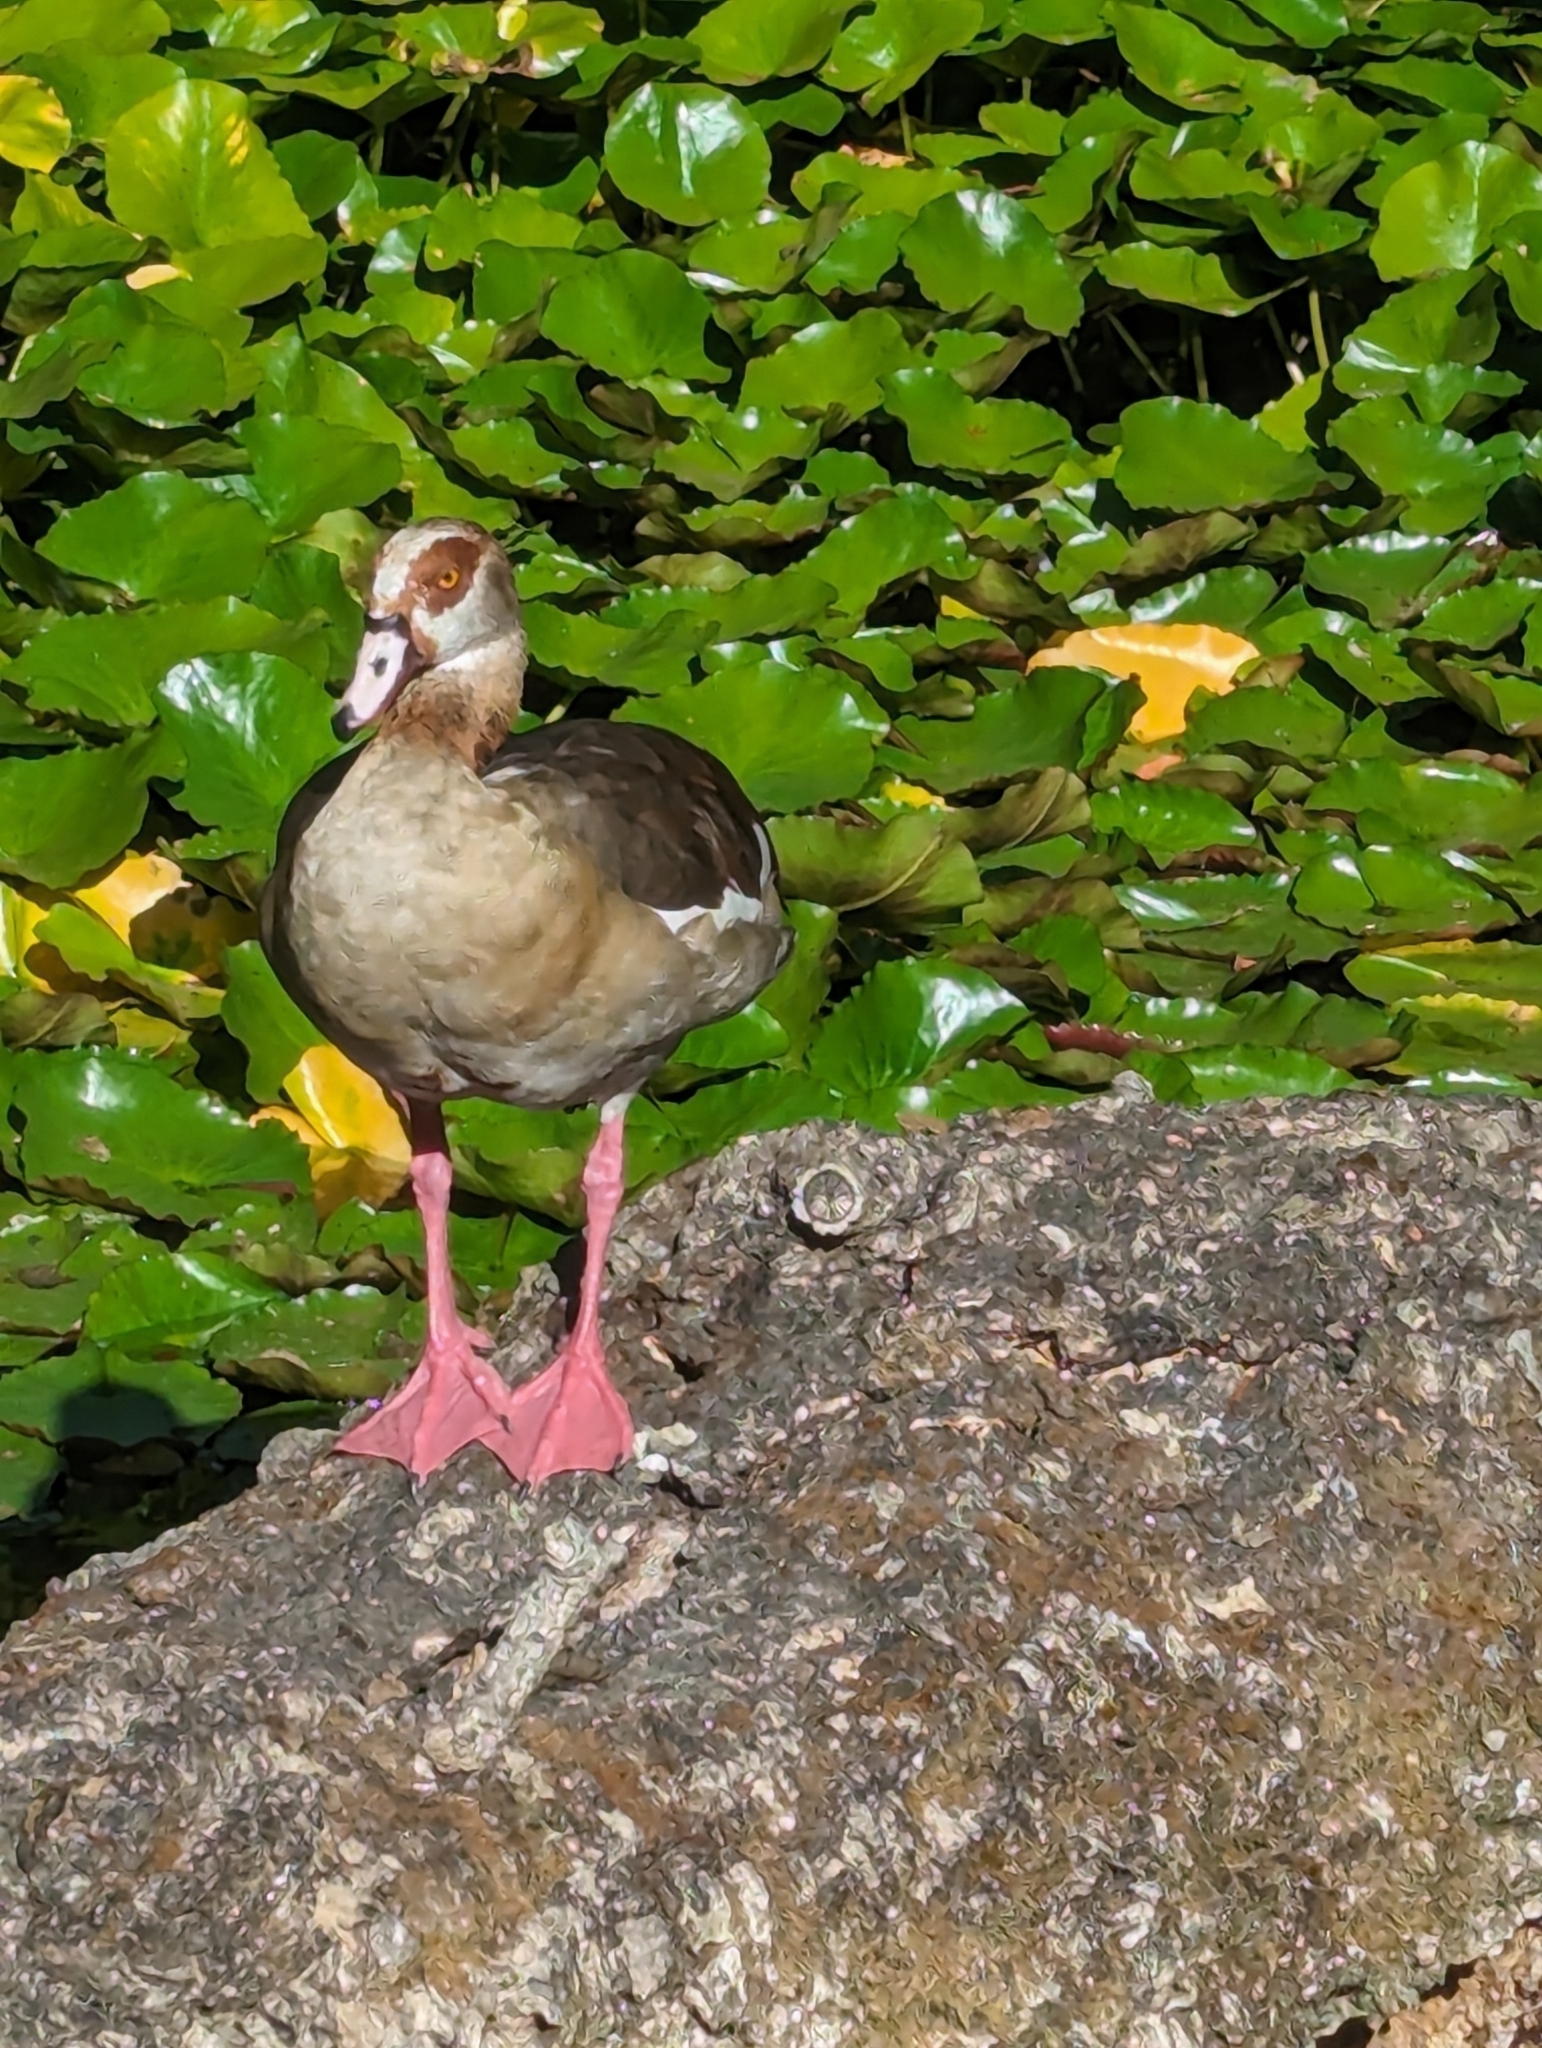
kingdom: Animalia
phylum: Chordata
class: Aves
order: Anseriformes
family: Anatidae
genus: Alopochen
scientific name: Alopochen aegyptiaca
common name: Egyptian goose
